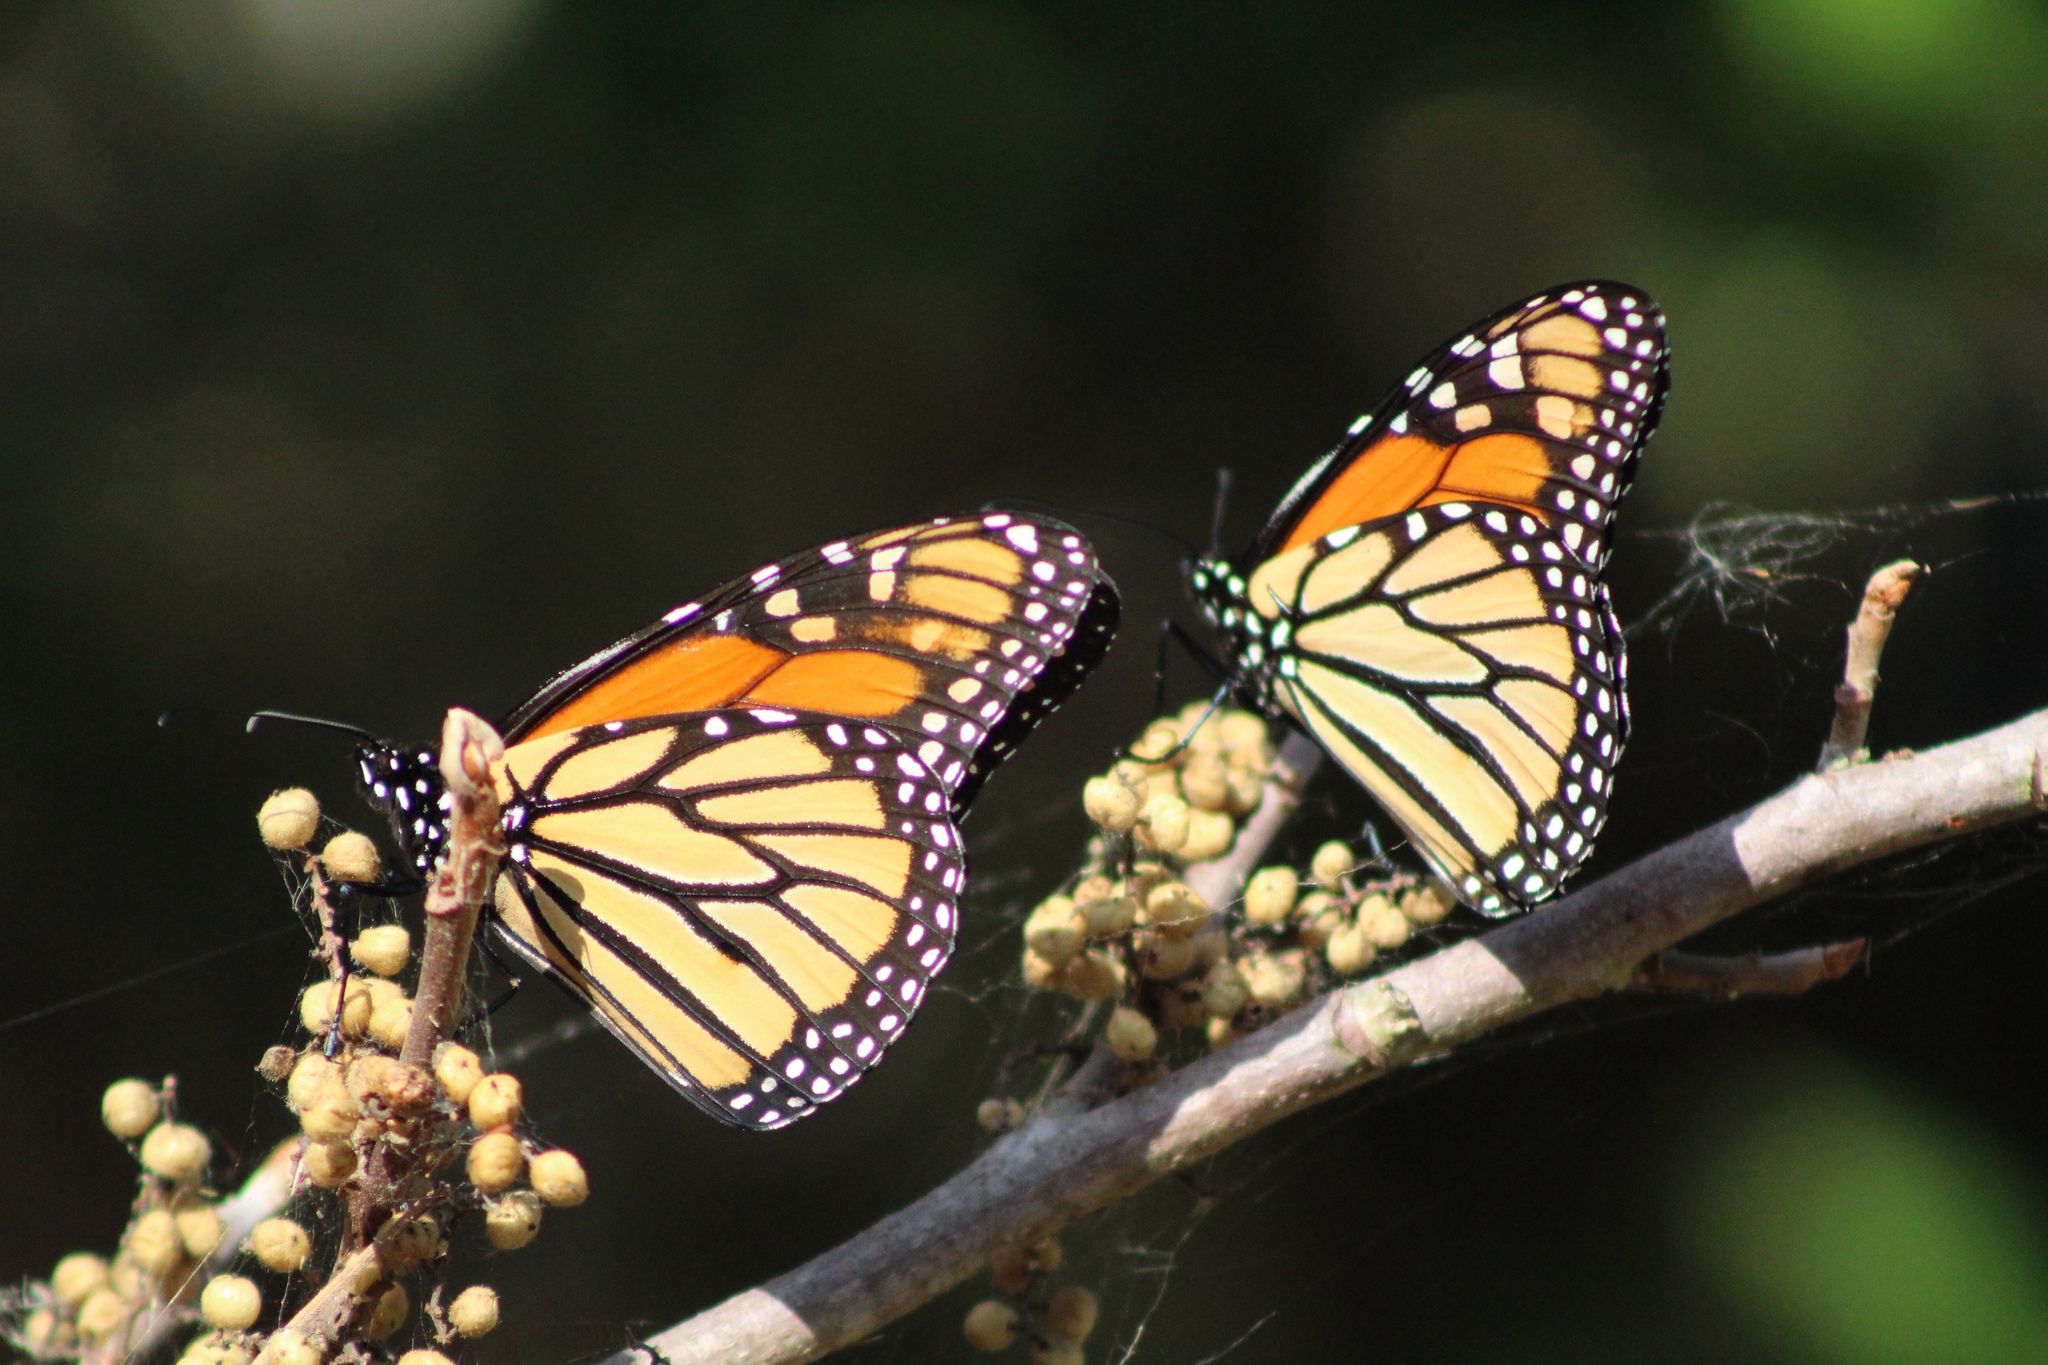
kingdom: Animalia
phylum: Arthropoda
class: Insecta
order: Lepidoptera
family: Nymphalidae
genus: Danaus
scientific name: Danaus plexippus
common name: Monarch
